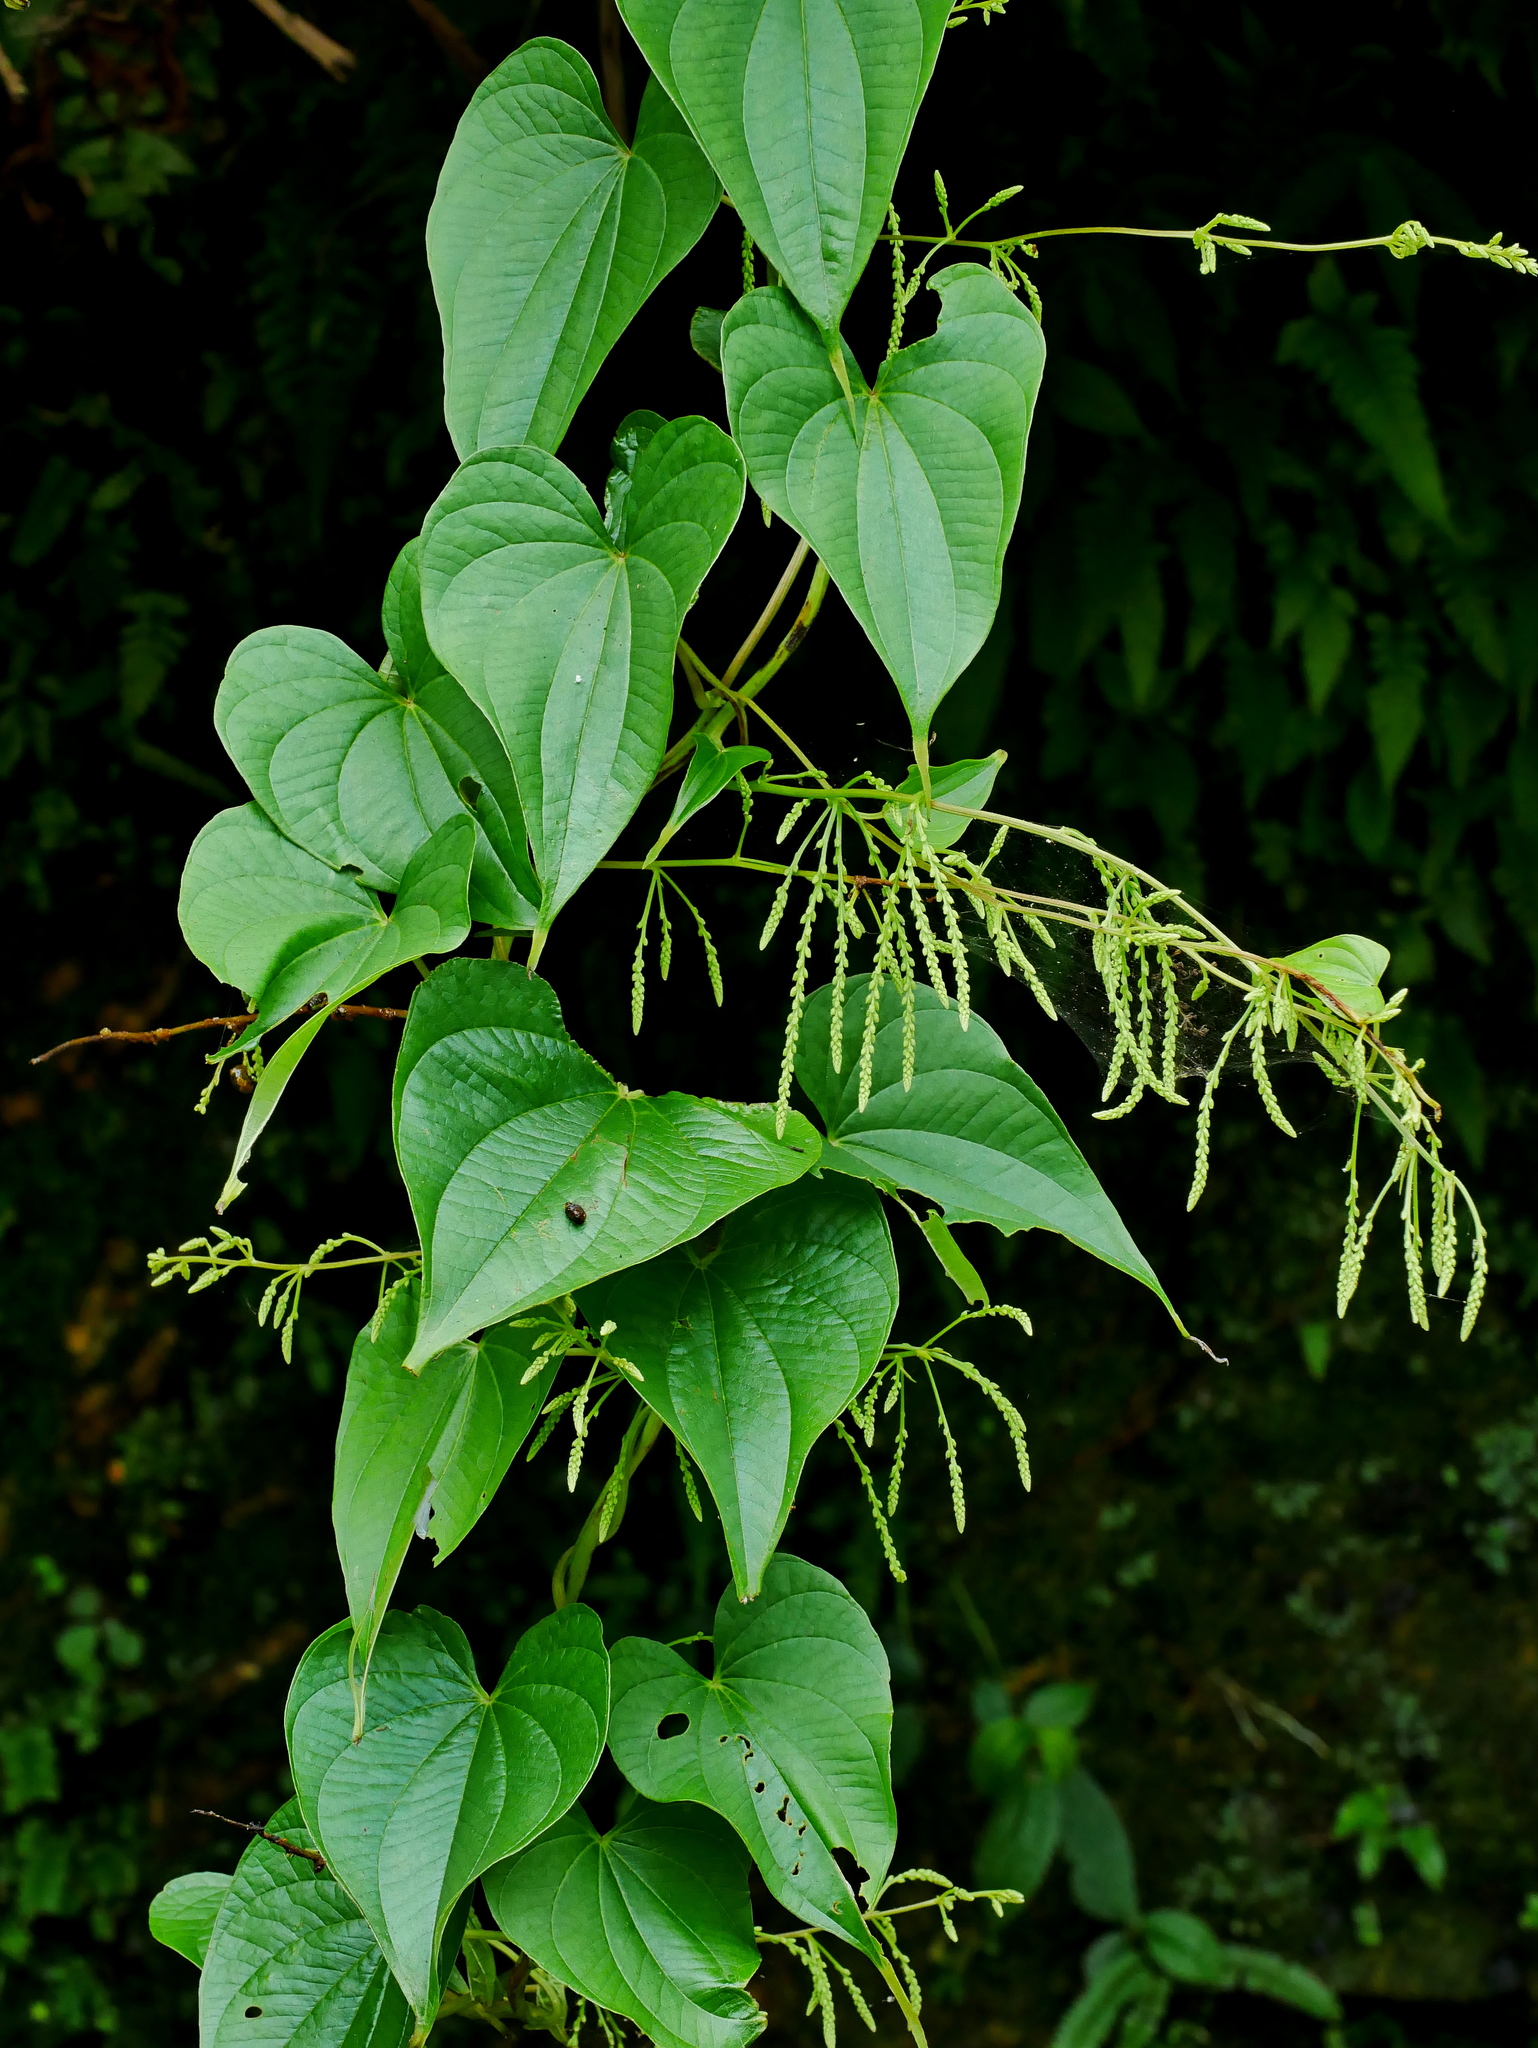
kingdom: Plantae
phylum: Tracheophyta
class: Liliopsida
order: Dioscoreales
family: Dioscoreaceae
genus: Dioscorea
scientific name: Dioscorea bulbifera
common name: Air yam
